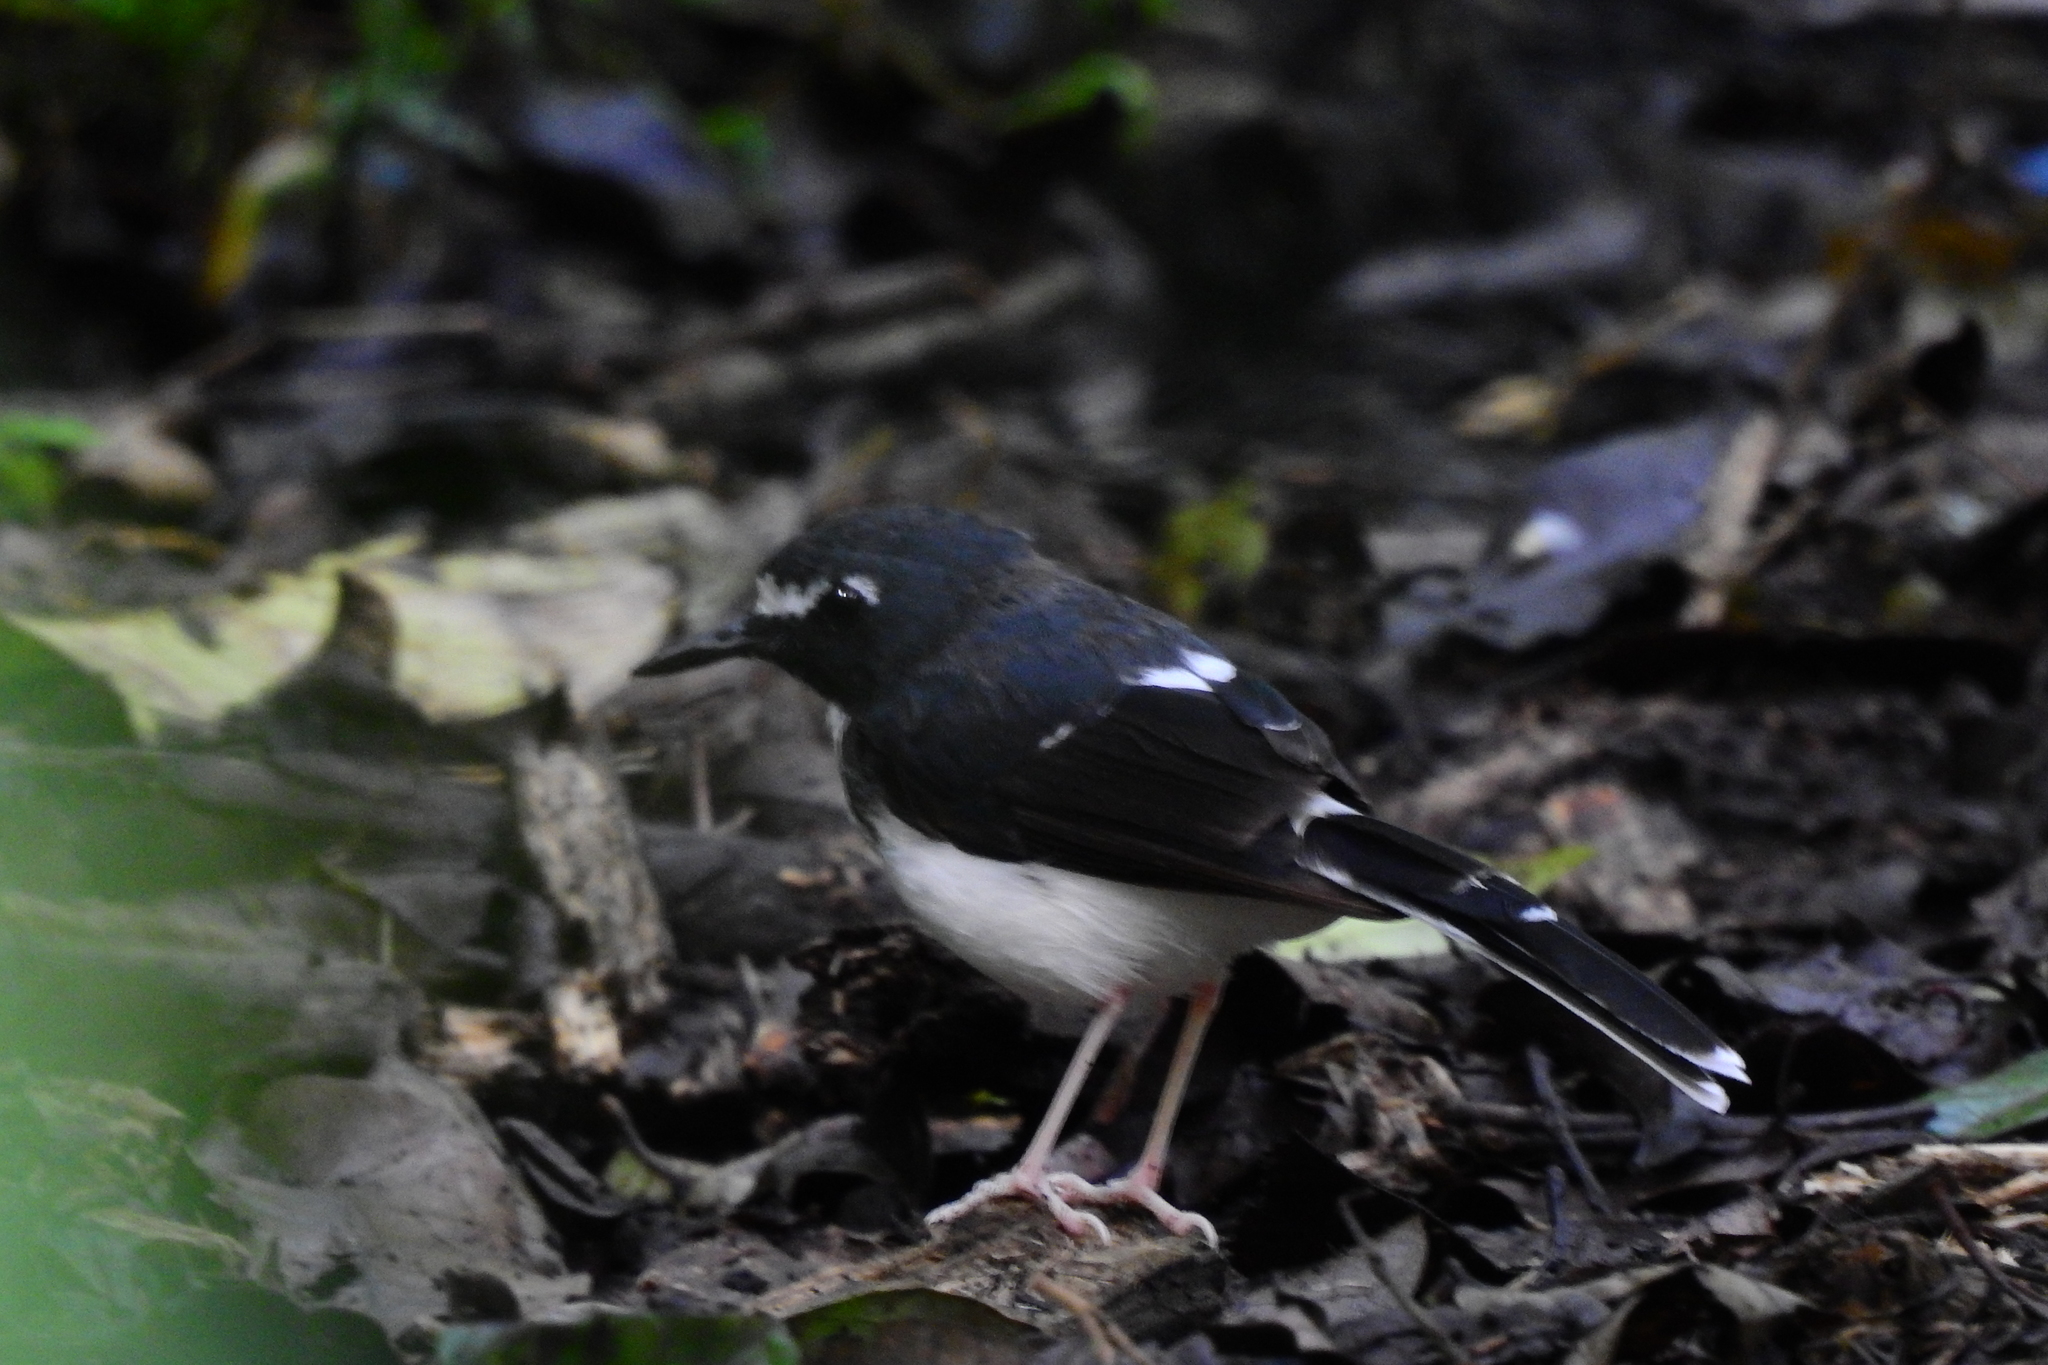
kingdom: Animalia
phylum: Chordata
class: Aves
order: Passeriformes
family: Muscicapidae
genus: Enicurus
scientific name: Enicurus velatus
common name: Sunda forktail
